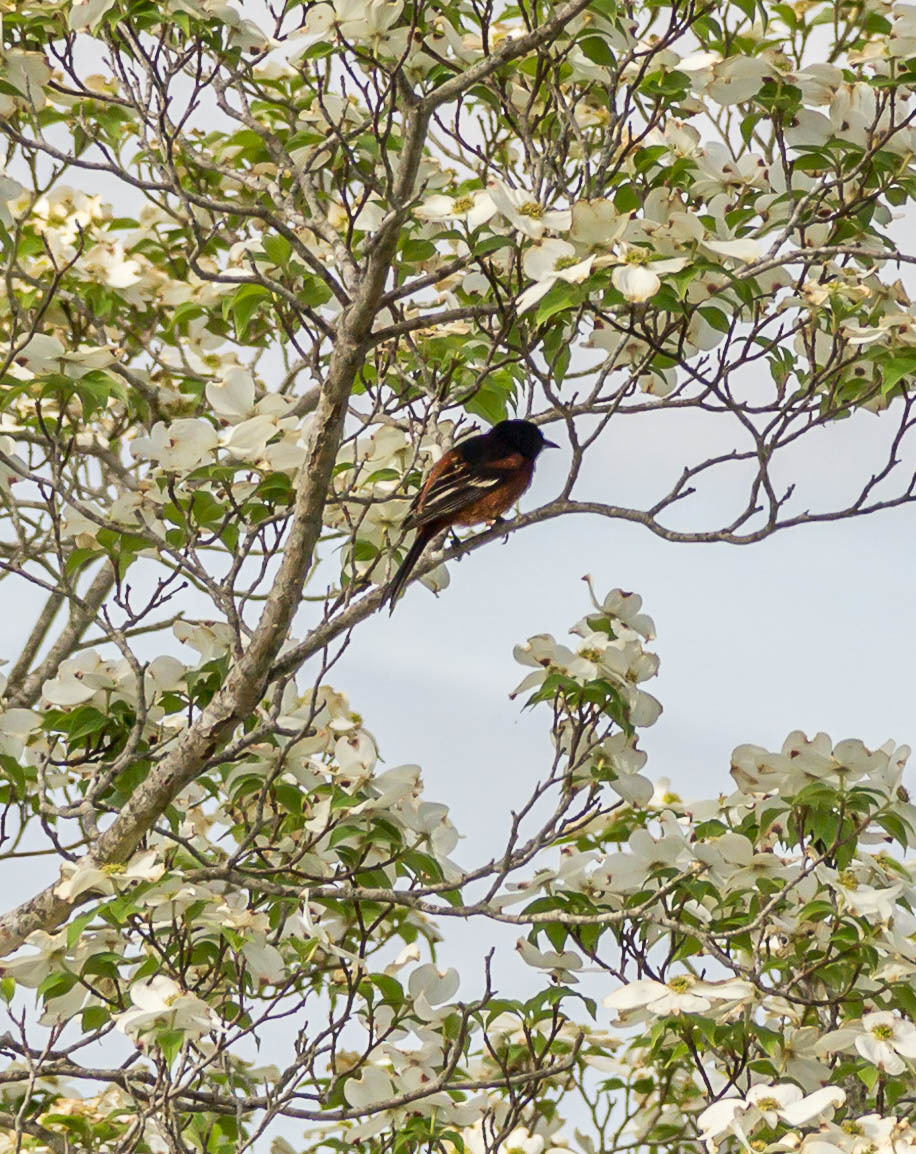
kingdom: Animalia
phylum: Chordata
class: Aves
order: Passeriformes
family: Icteridae
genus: Icterus
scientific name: Icterus spurius
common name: Orchard oriole
